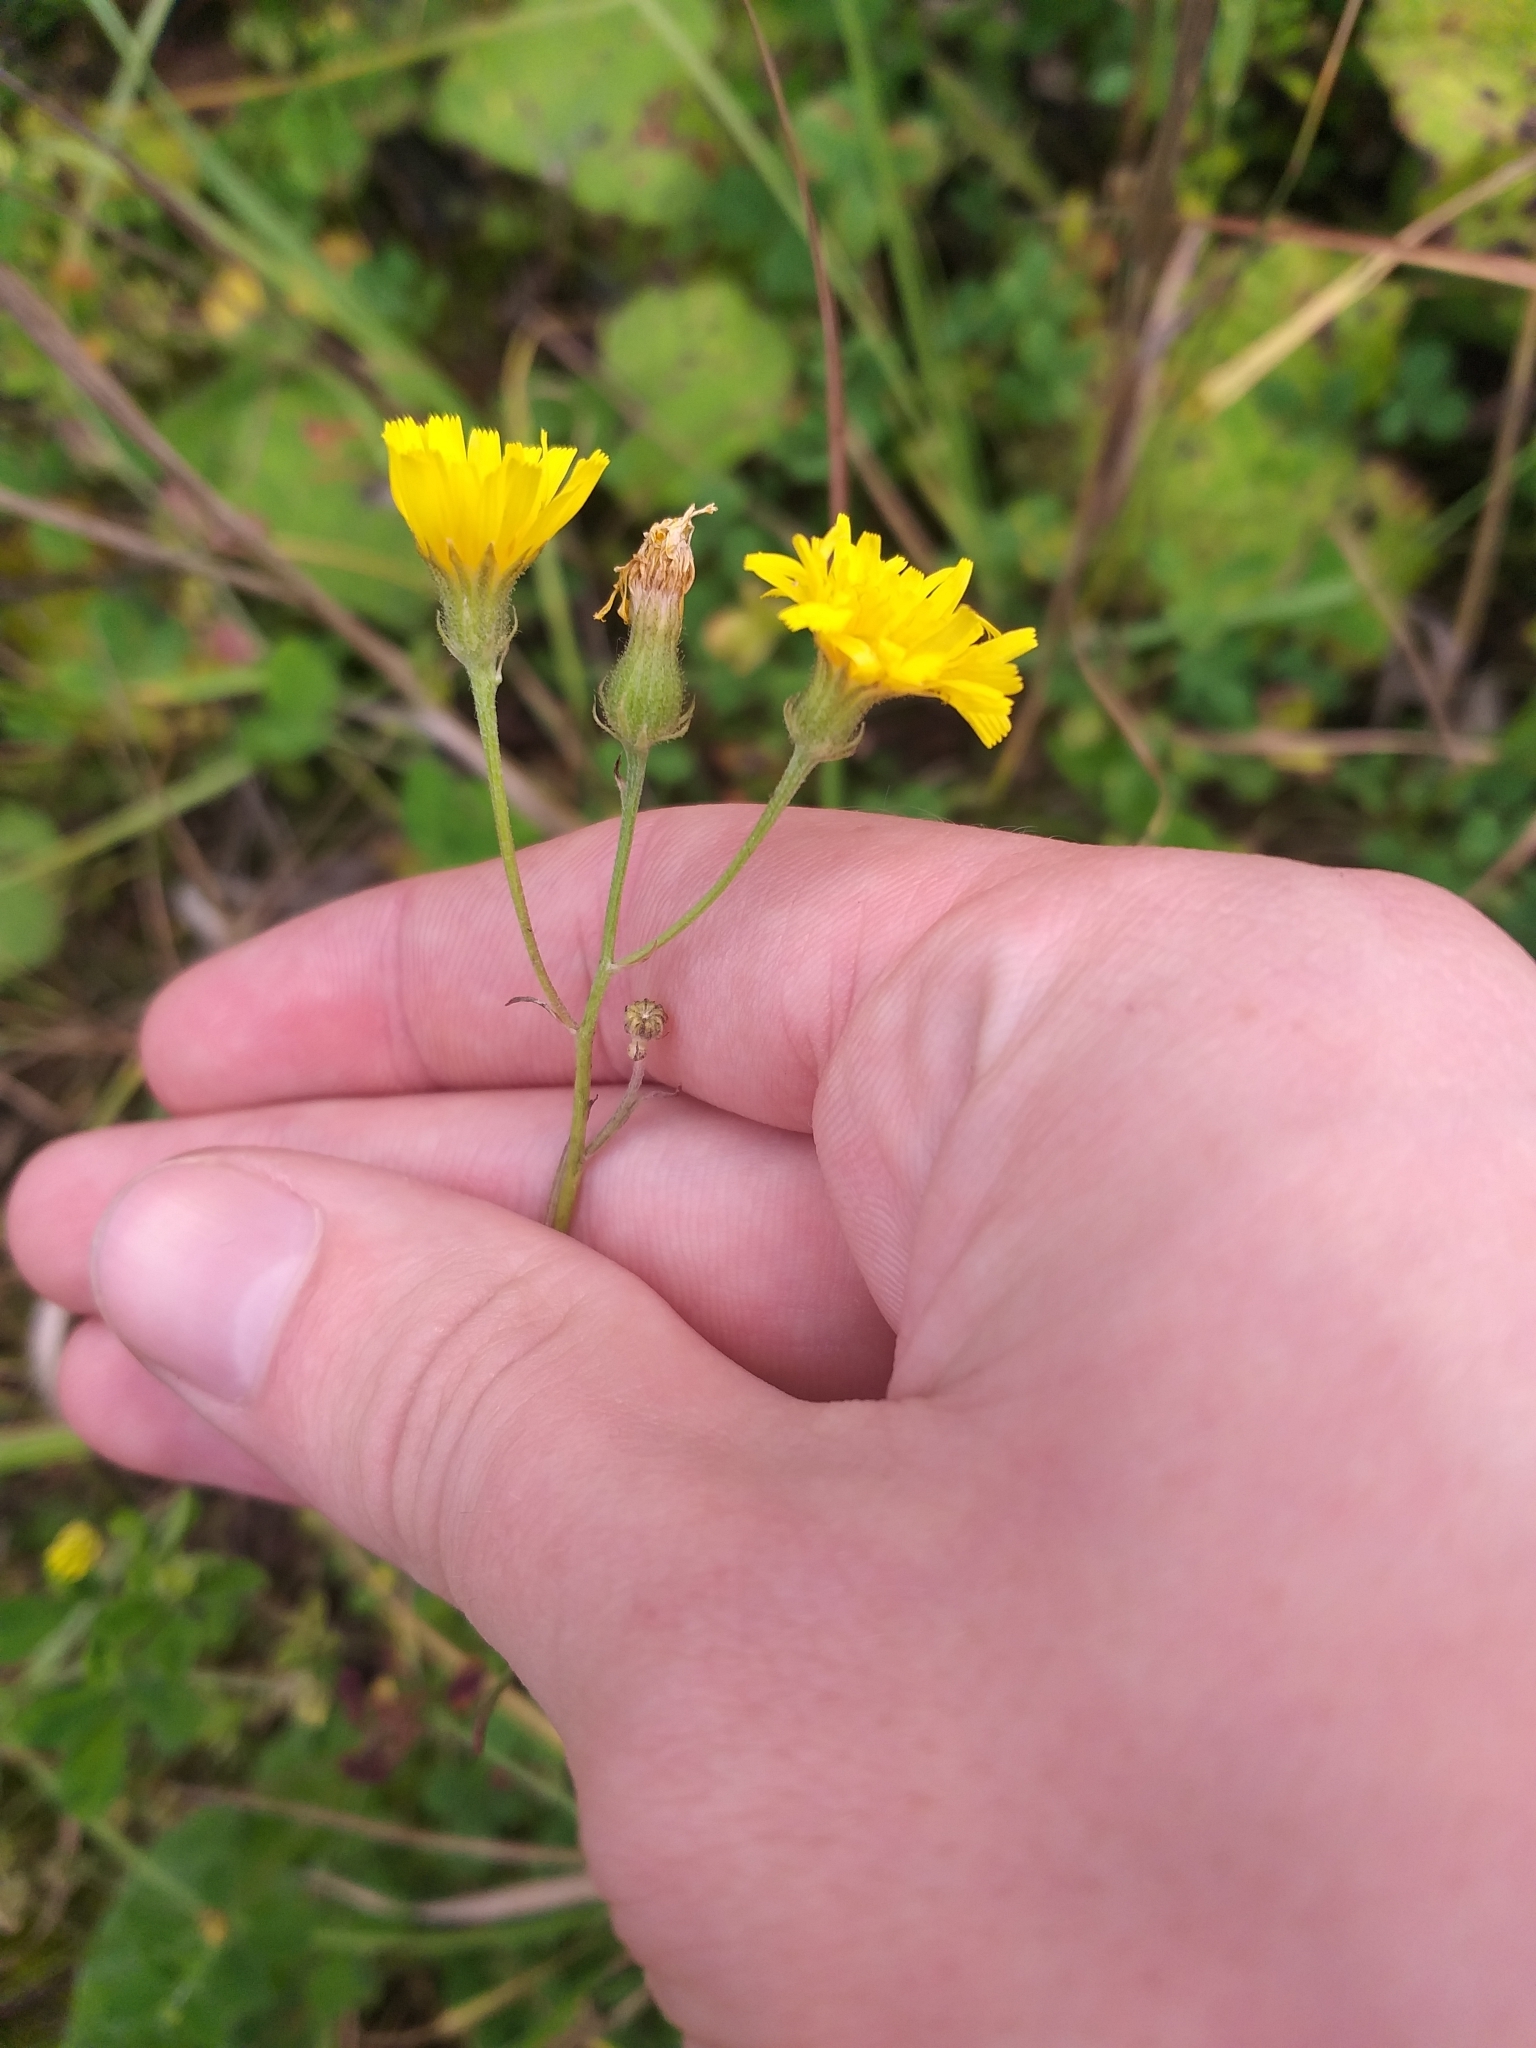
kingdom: Plantae
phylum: Tracheophyta
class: Magnoliopsida
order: Asterales
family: Asteraceae
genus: Crepis
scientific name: Crepis tectorum
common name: Narrow-leaved hawk's-beard
